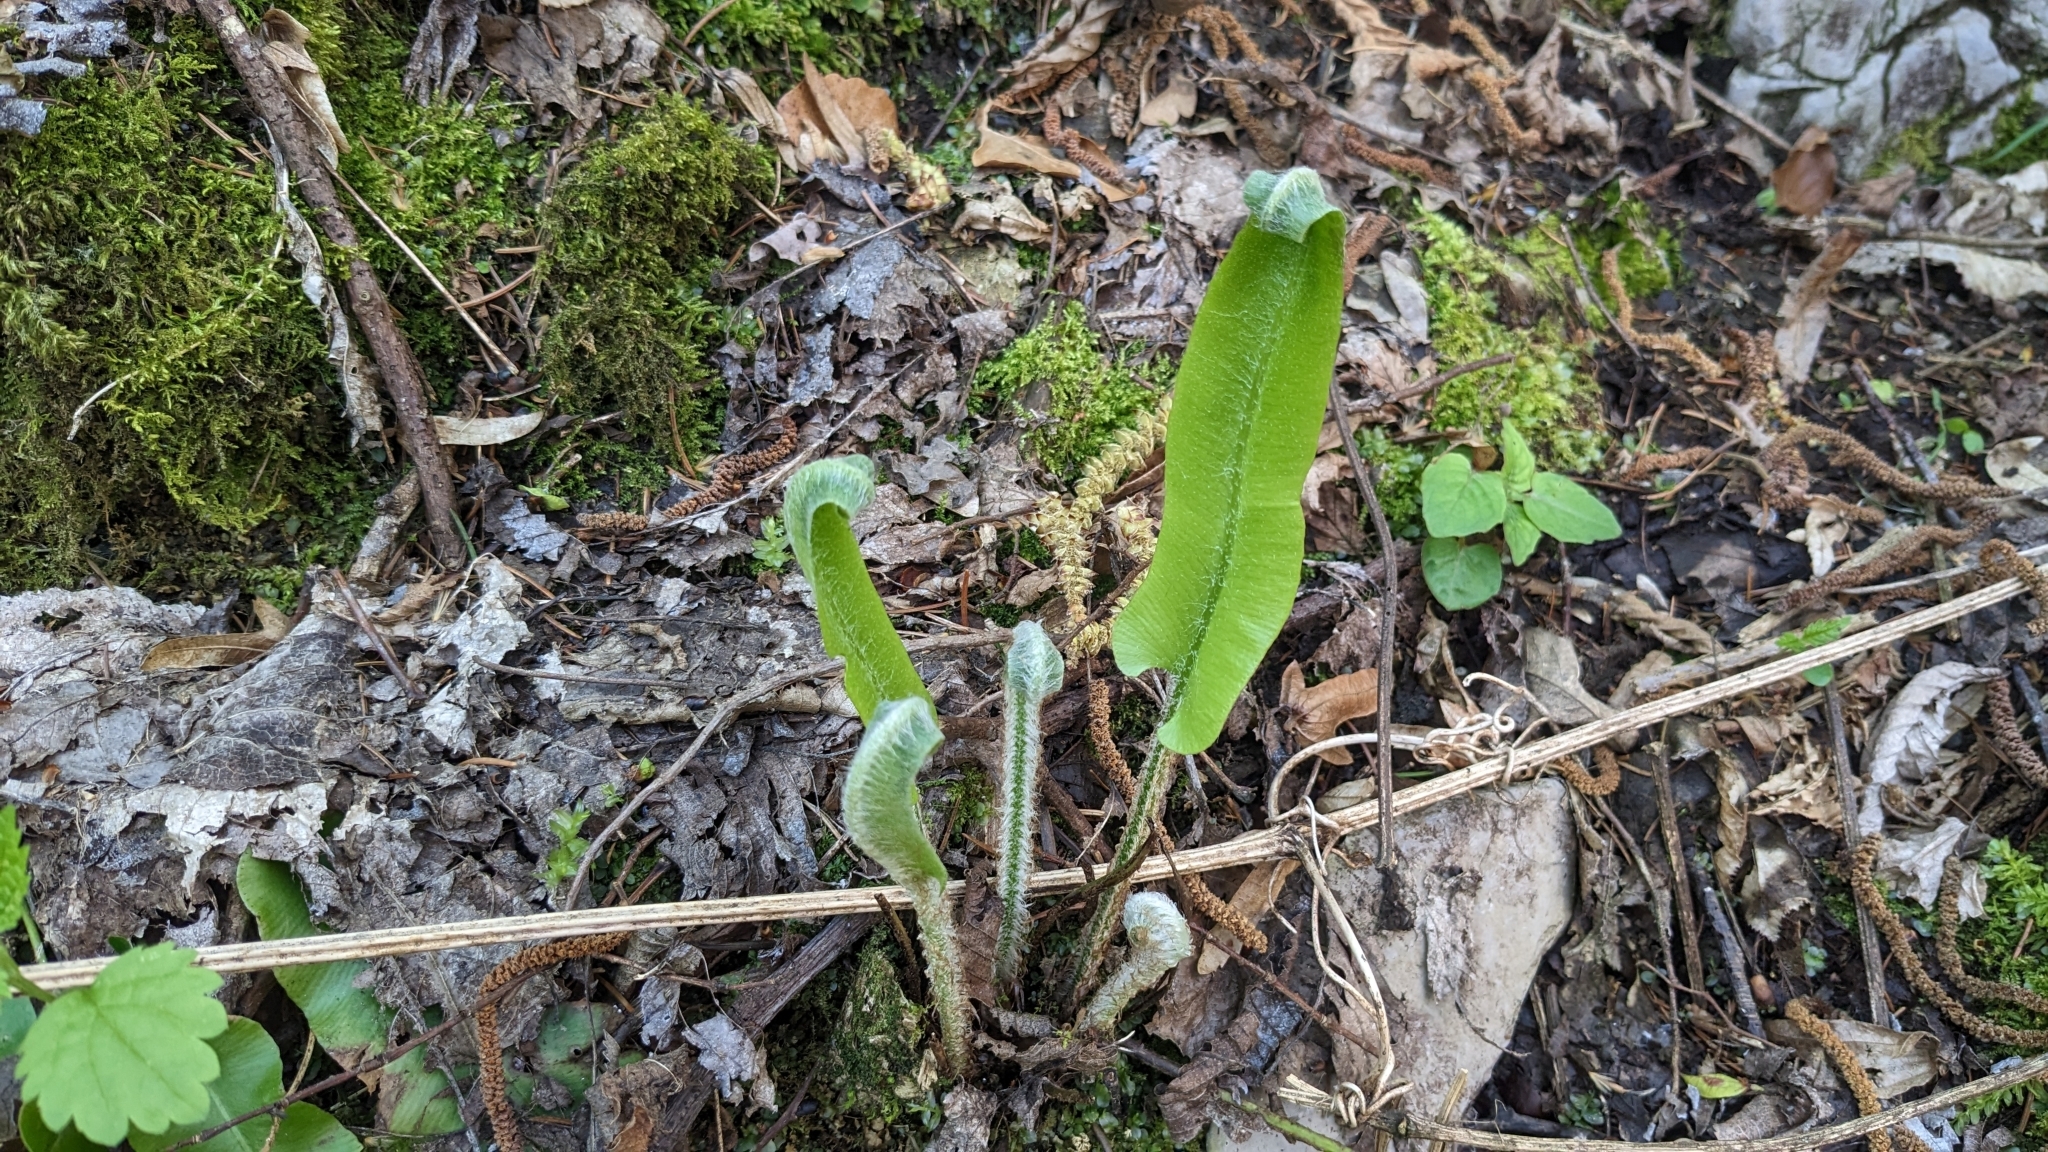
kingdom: Plantae
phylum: Tracheophyta
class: Polypodiopsida
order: Polypodiales
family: Aspleniaceae
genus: Asplenium
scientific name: Asplenium scolopendrium
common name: Hart's-tongue fern
